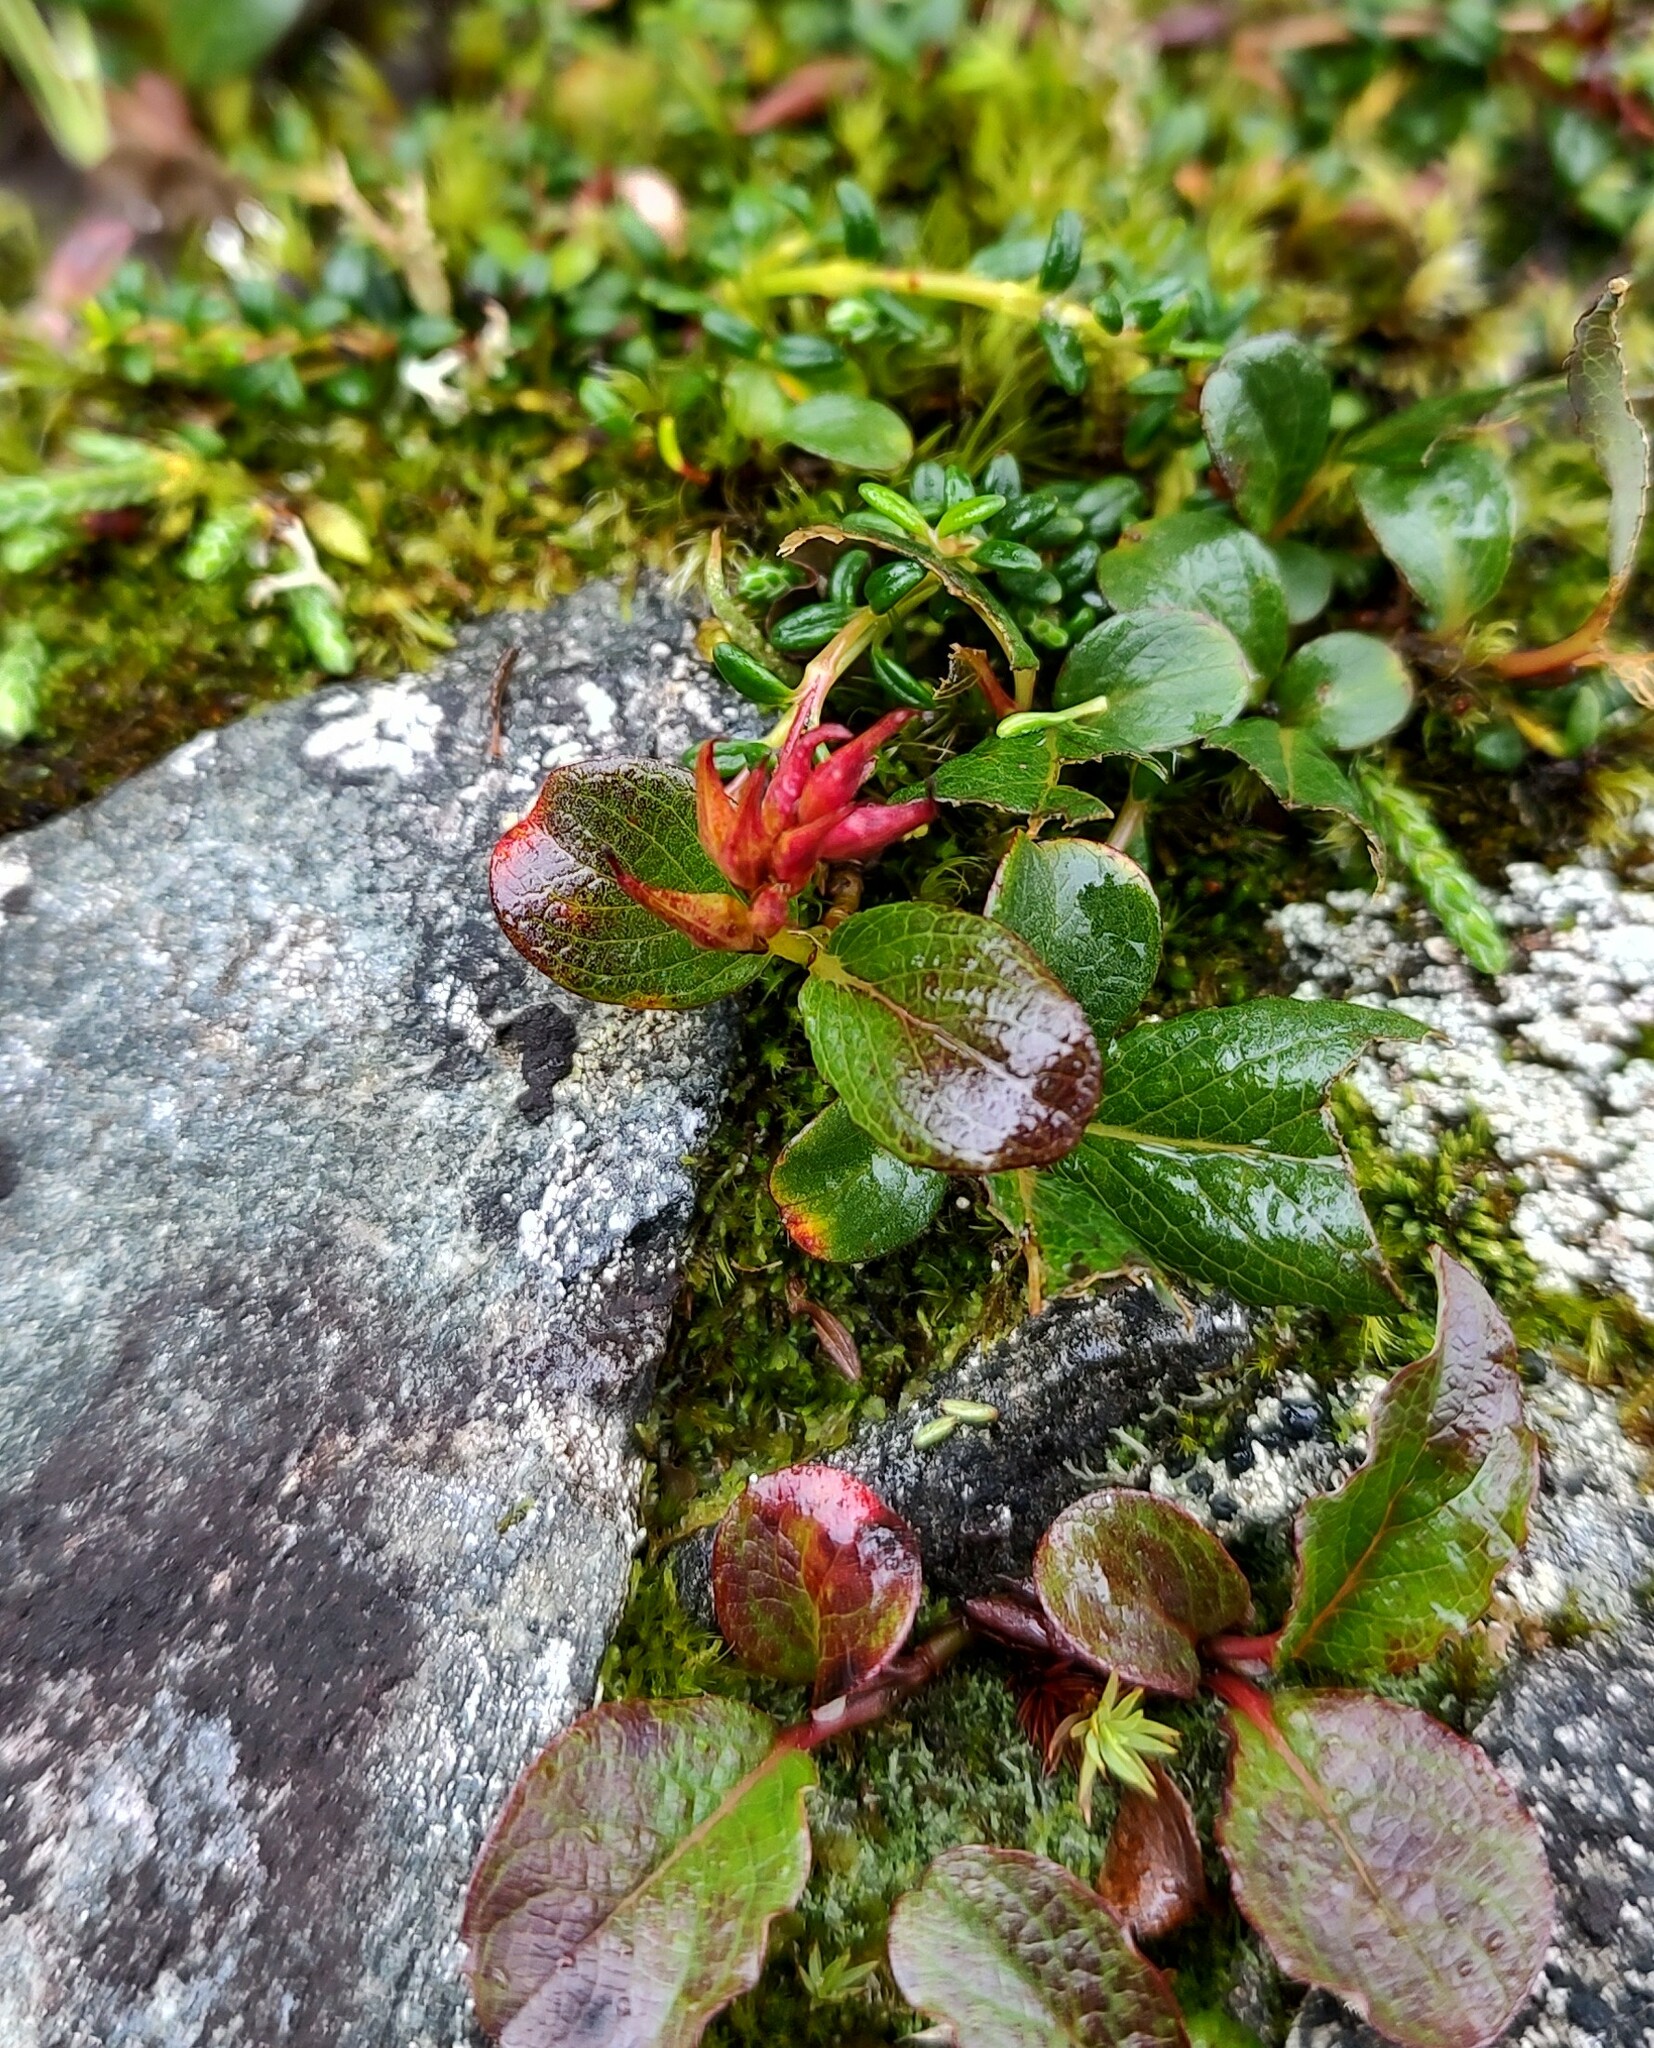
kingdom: Plantae
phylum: Tracheophyta
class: Magnoliopsida
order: Malpighiales
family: Salicaceae
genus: Salix
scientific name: Salix stolonifera
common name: Creeping willow
